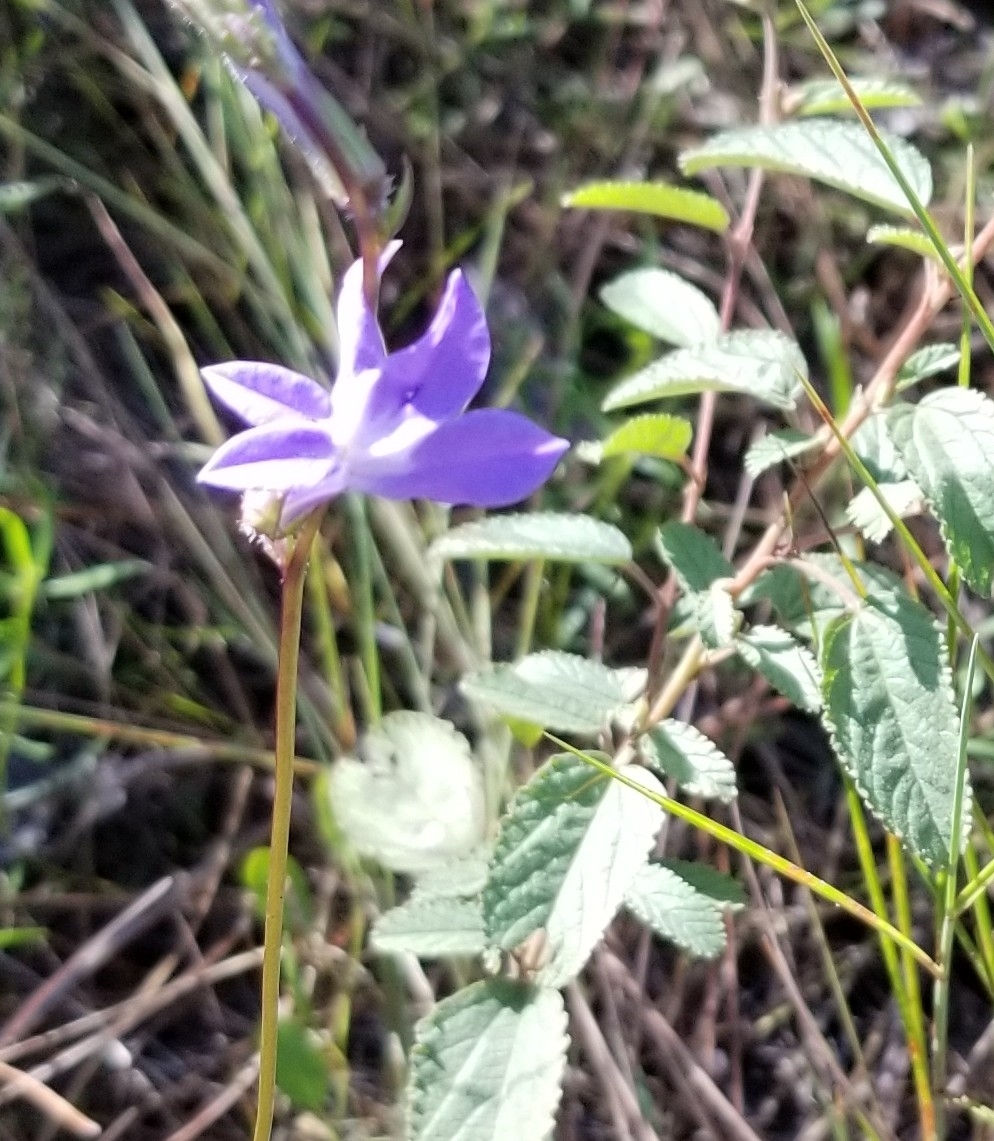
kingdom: Plantae
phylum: Tracheophyta
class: Magnoliopsida
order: Asterales
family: Campanulaceae
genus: Lobelia
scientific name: Lobelia glandulosa
